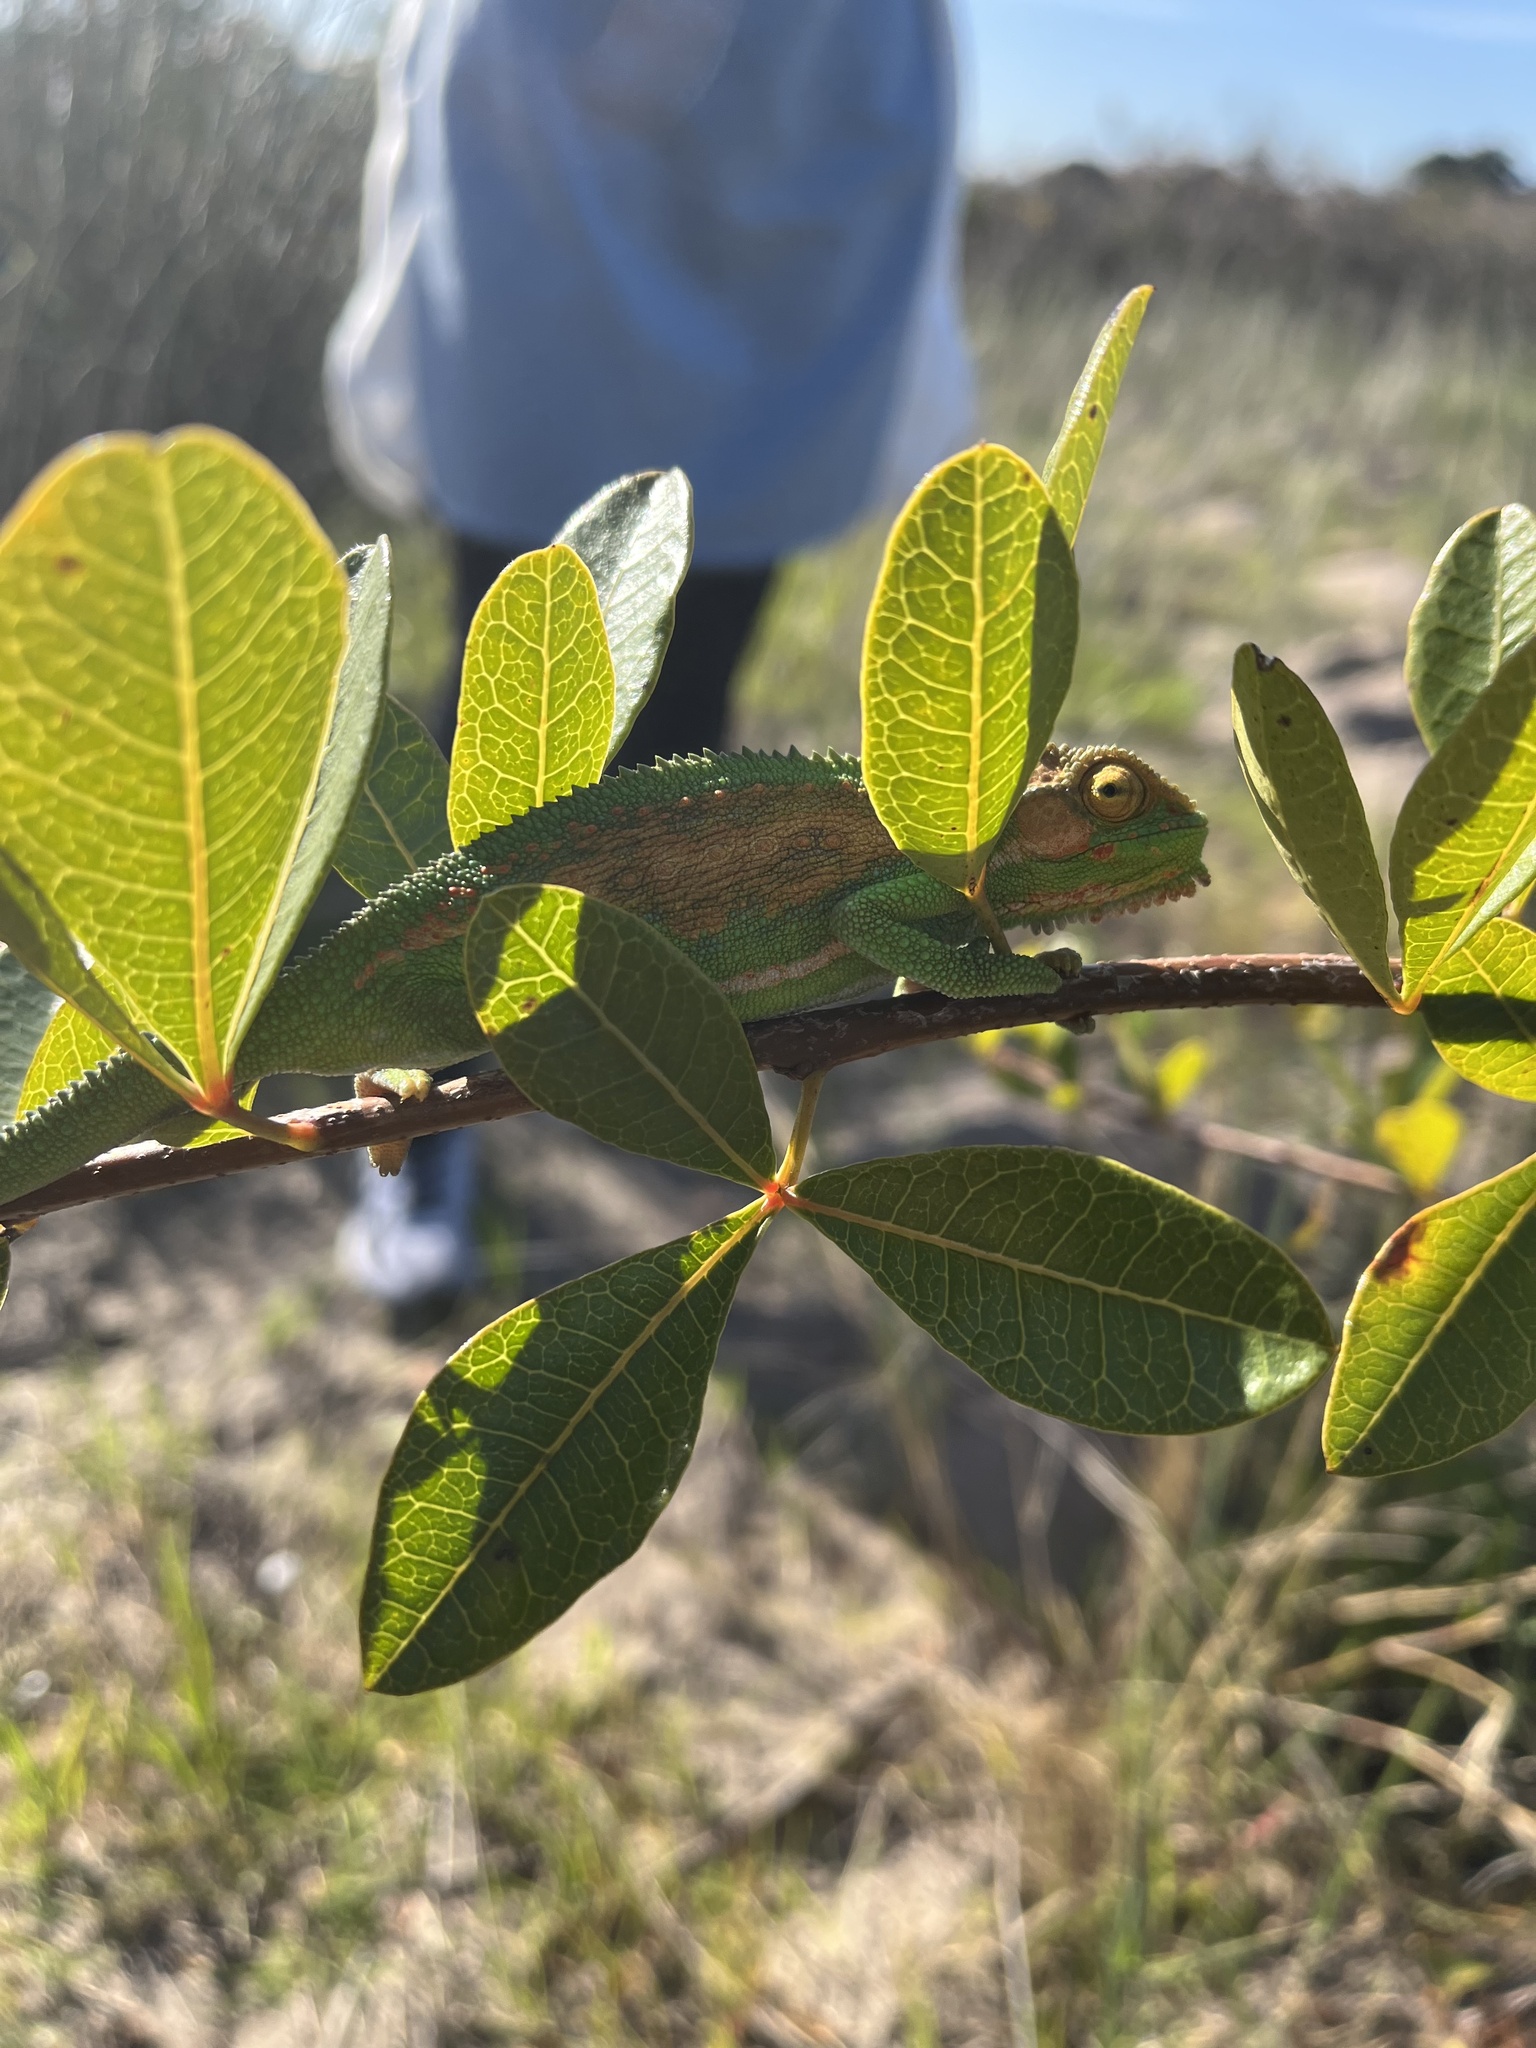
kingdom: Animalia
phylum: Chordata
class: Squamata
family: Chamaeleonidae
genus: Bradypodion
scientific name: Bradypodion pumilum
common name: Cape dwarf chameleon
